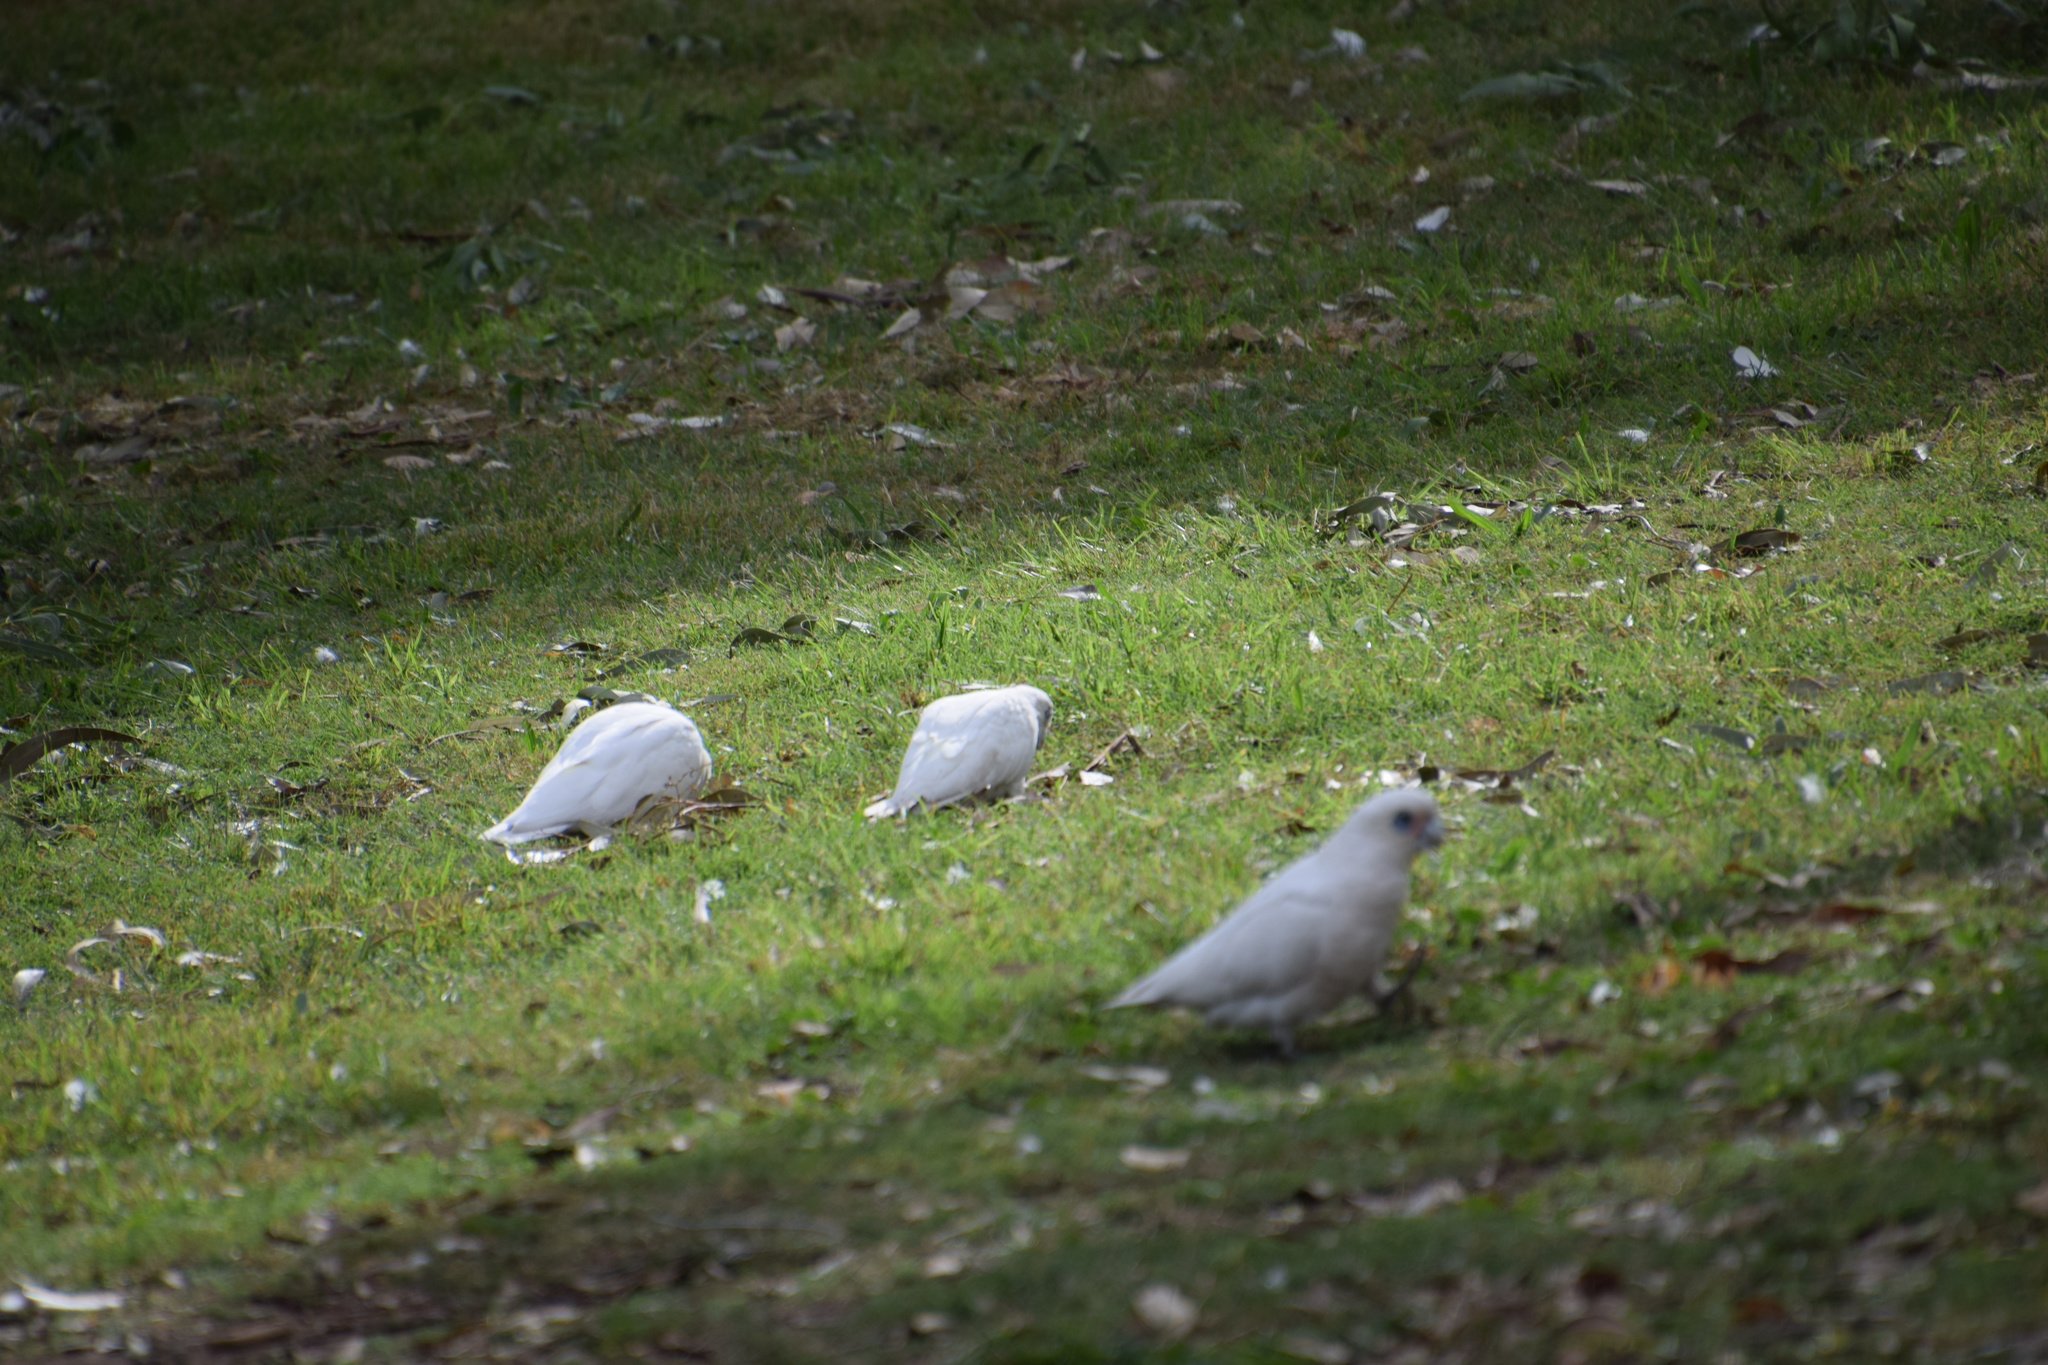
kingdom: Animalia
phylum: Chordata
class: Aves
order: Psittaciformes
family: Psittacidae
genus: Cacatua
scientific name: Cacatua sanguinea
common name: Little corella
